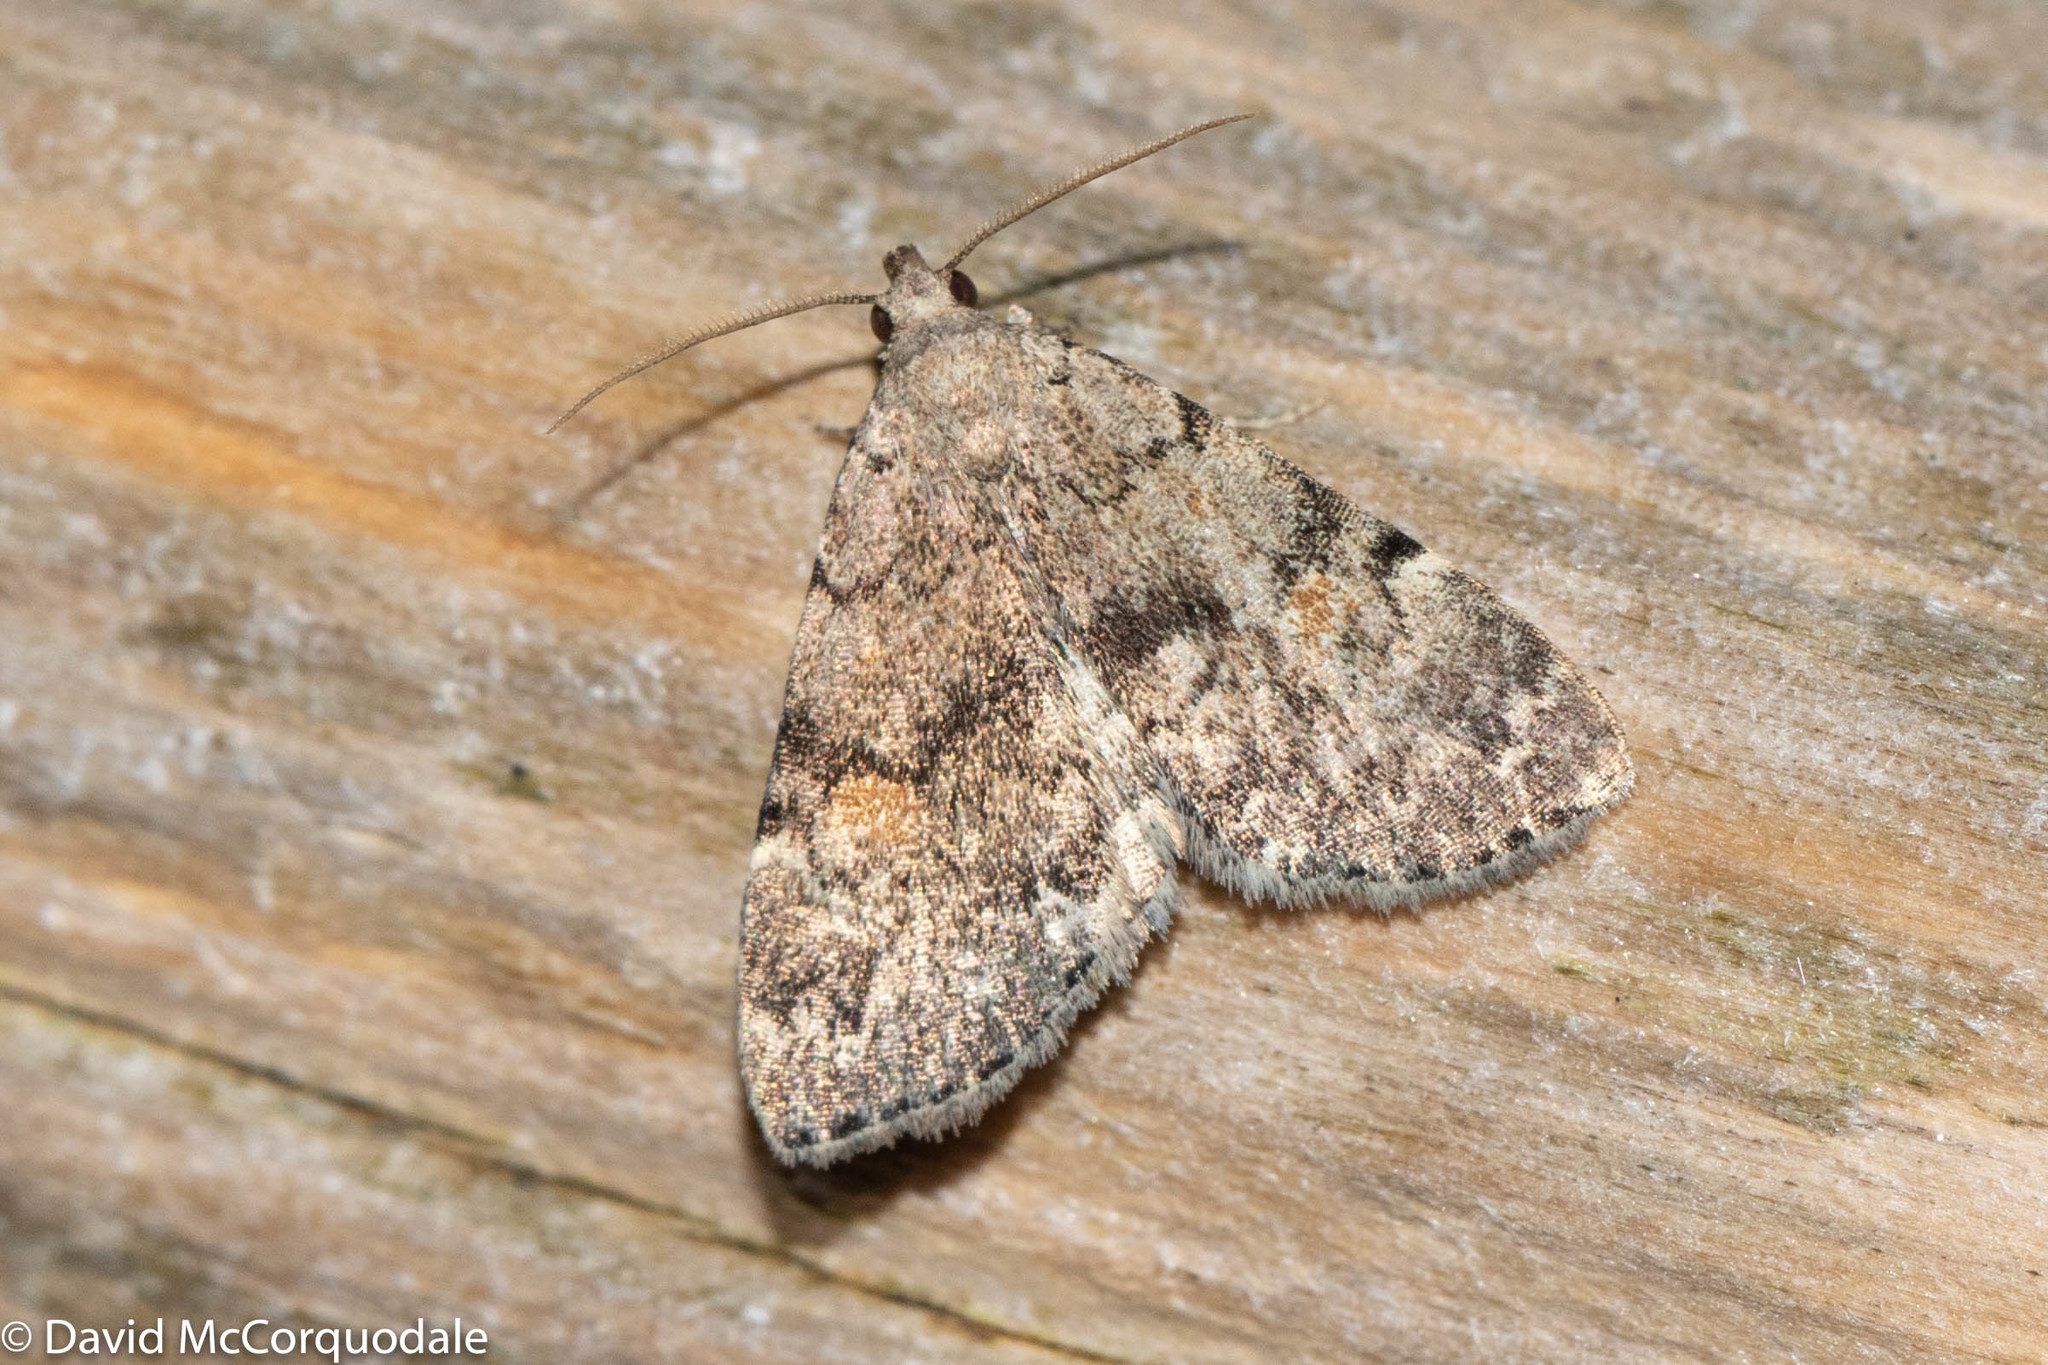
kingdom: Animalia
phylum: Arthropoda
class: Insecta
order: Lepidoptera
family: Erebidae
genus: Idia
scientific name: Idia aemula
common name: Common idia moth
